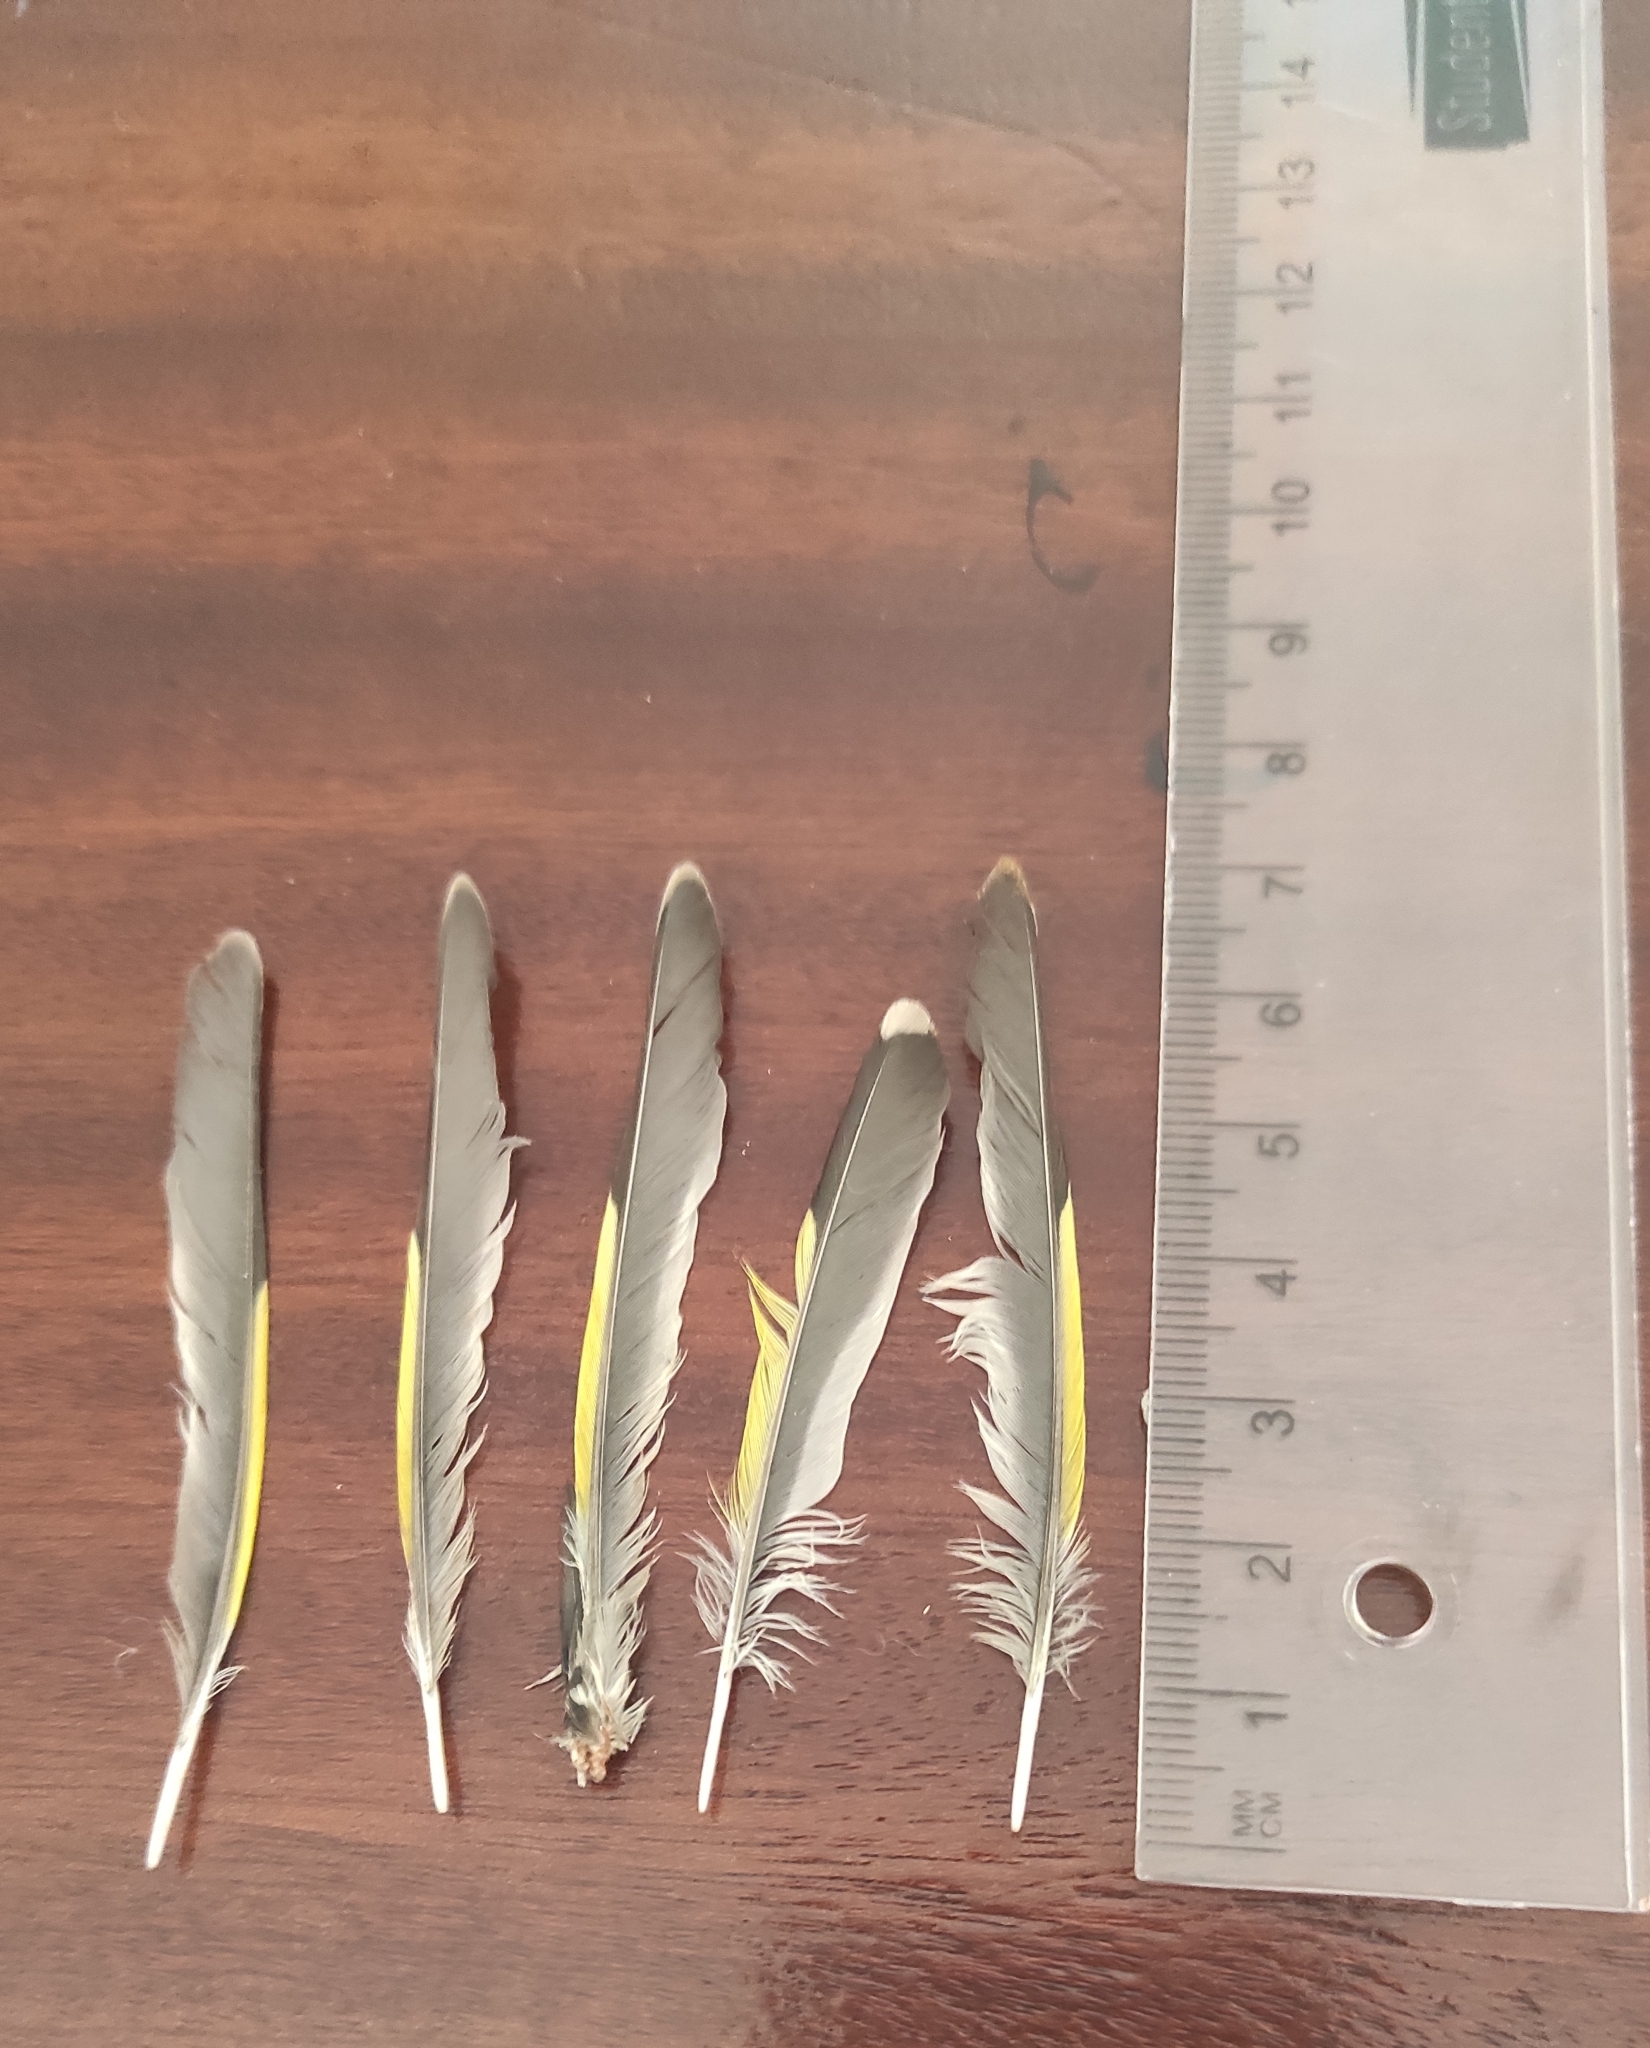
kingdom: Animalia
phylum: Chordata
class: Aves
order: Passeriformes
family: Fringillidae
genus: Carduelis
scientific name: Carduelis carduelis
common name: European goldfinch
